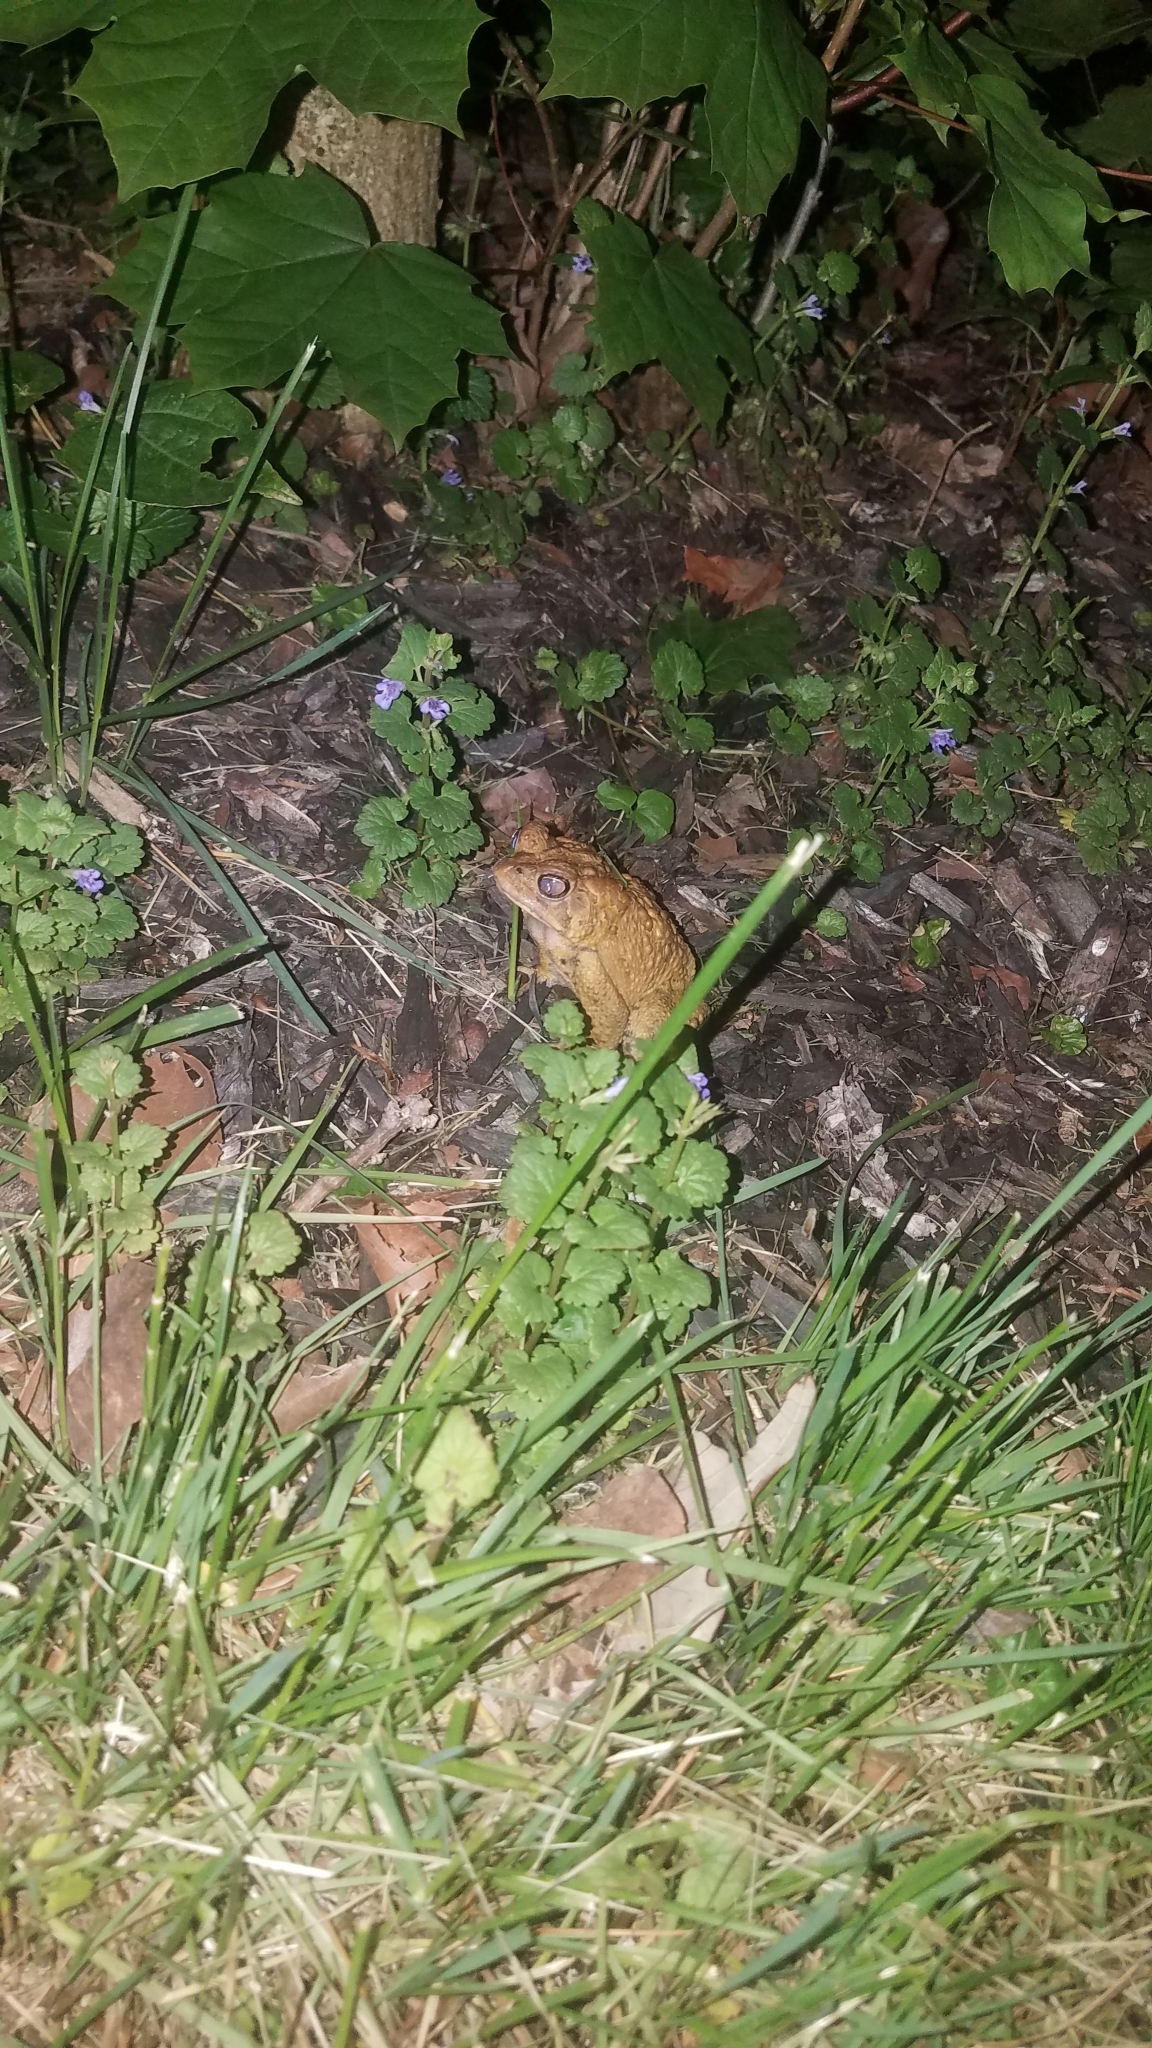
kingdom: Animalia
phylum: Chordata
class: Amphibia
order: Anura
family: Bufonidae
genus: Anaxyrus
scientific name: Anaxyrus americanus
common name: American toad
